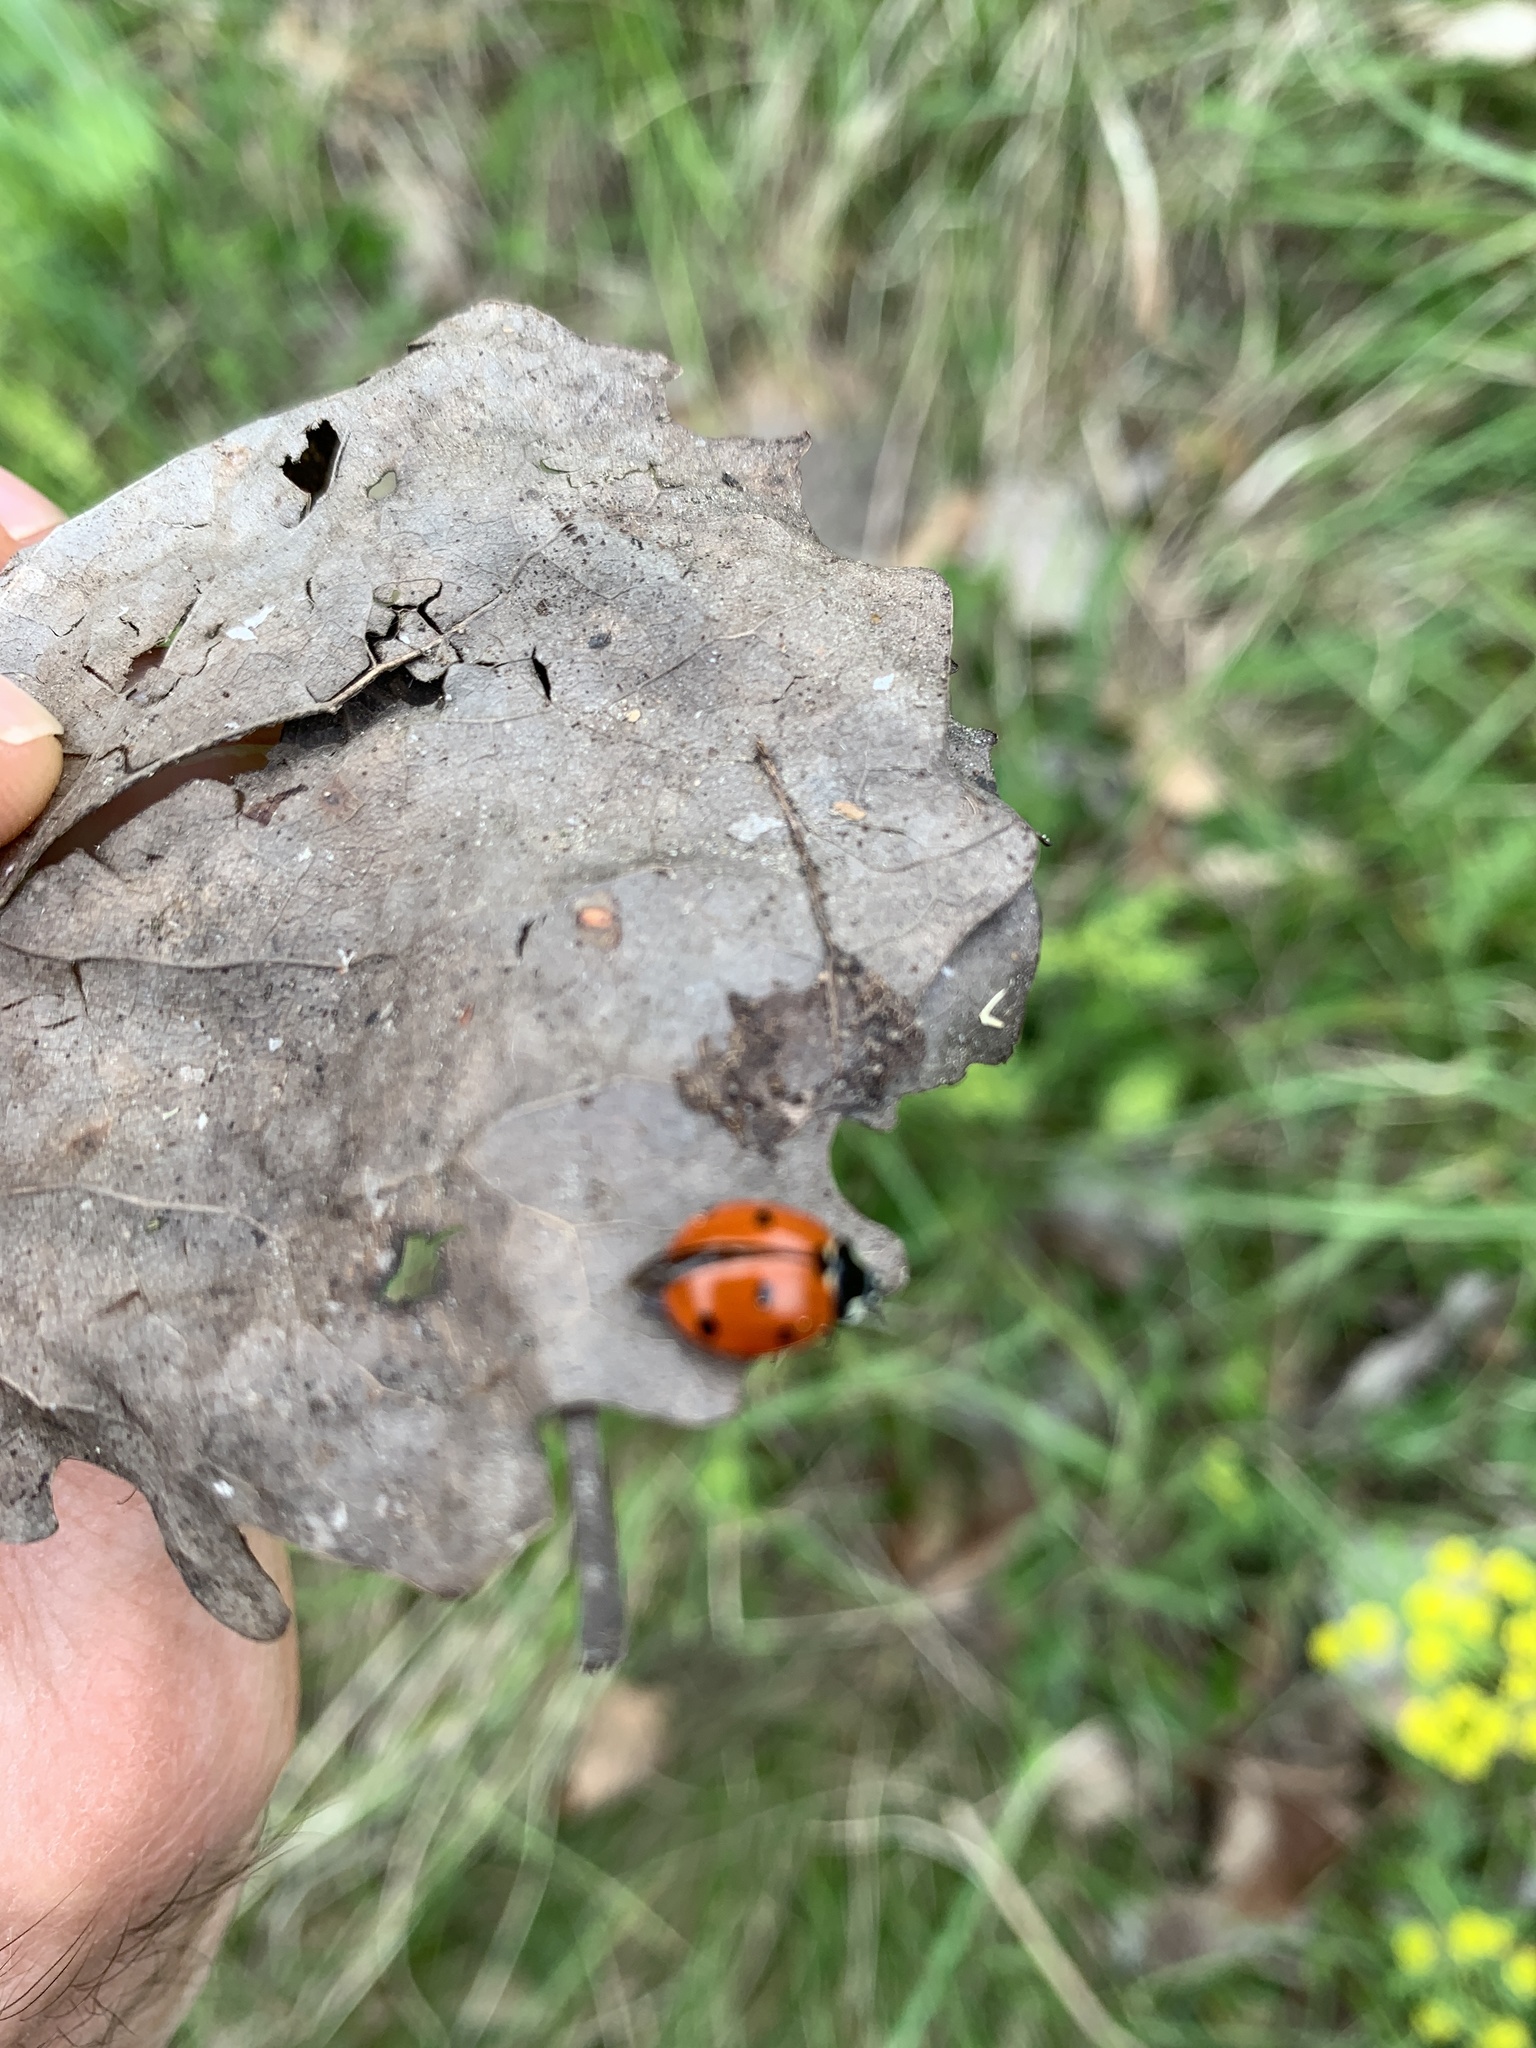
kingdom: Animalia
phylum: Arthropoda
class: Insecta
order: Coleoptera
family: Coccinellidae
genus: Coccinella
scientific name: Coccinella septempunctata
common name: Sevenspotted lady beetle
